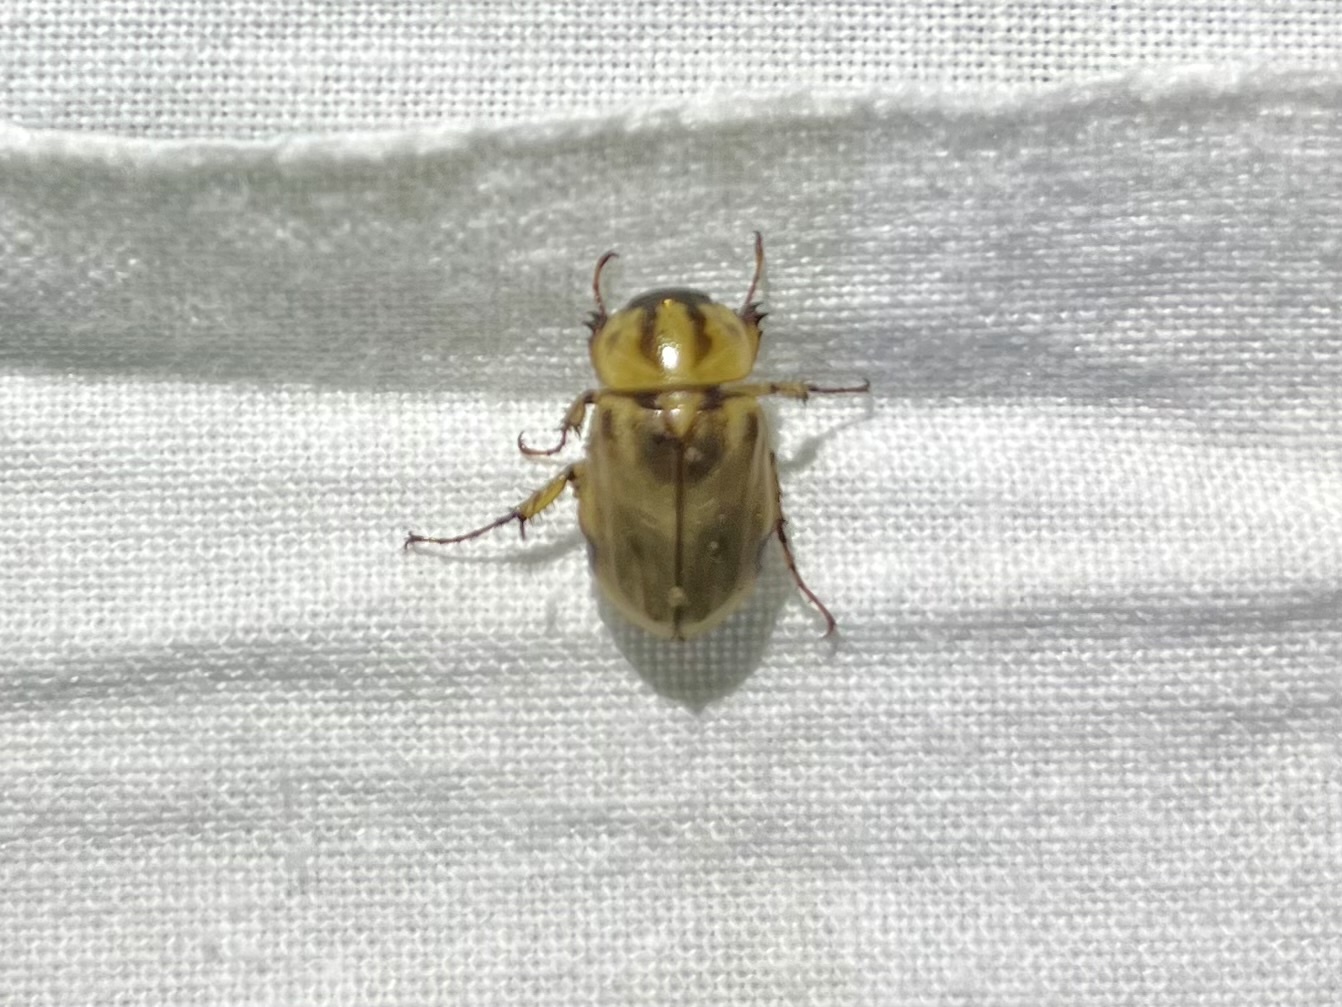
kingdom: Animalia
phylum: Arthropoda
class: Insecta
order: Coleoptera
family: Scarabaeidae
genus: Cyclocephala
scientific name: Cyclocephala amazona
